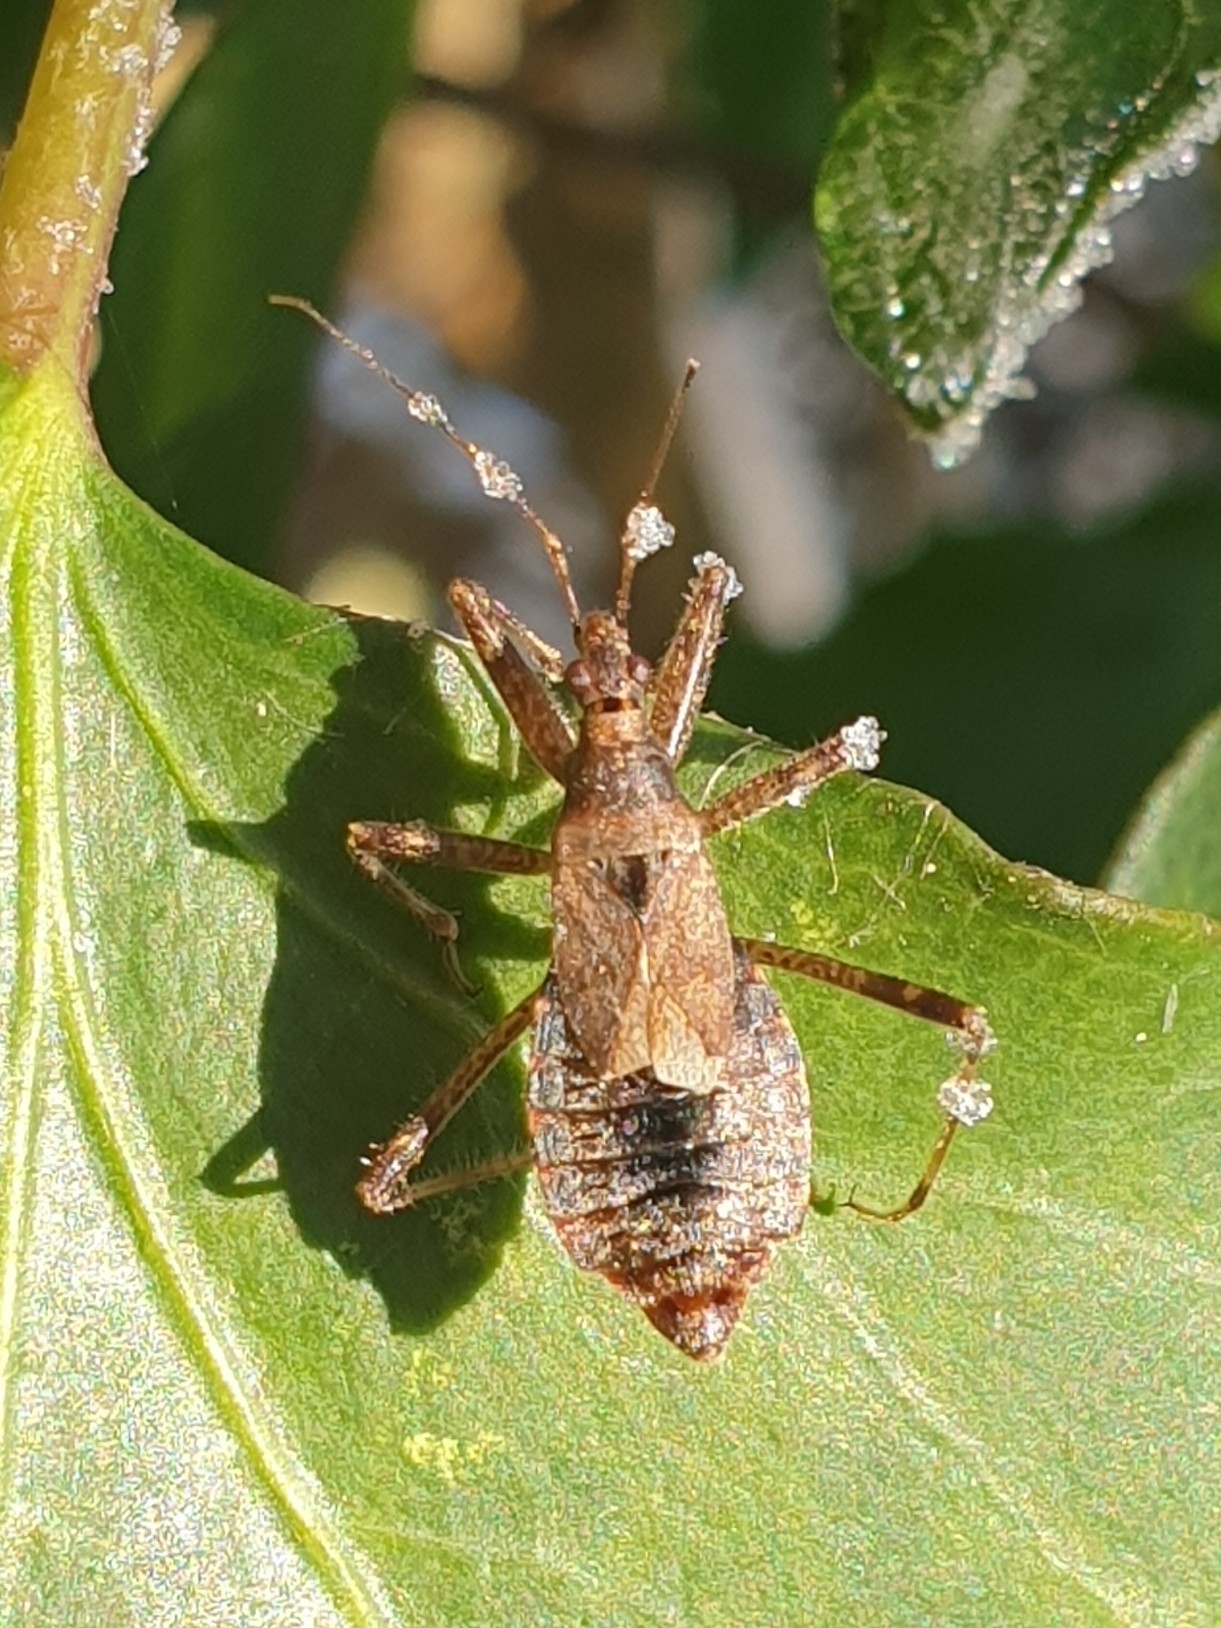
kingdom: Animalia
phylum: Arthropoda
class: Insecta
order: Hemiptera
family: Nabidae
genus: Himacerus
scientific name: Himacerus apterus
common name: Tree damsel bug
